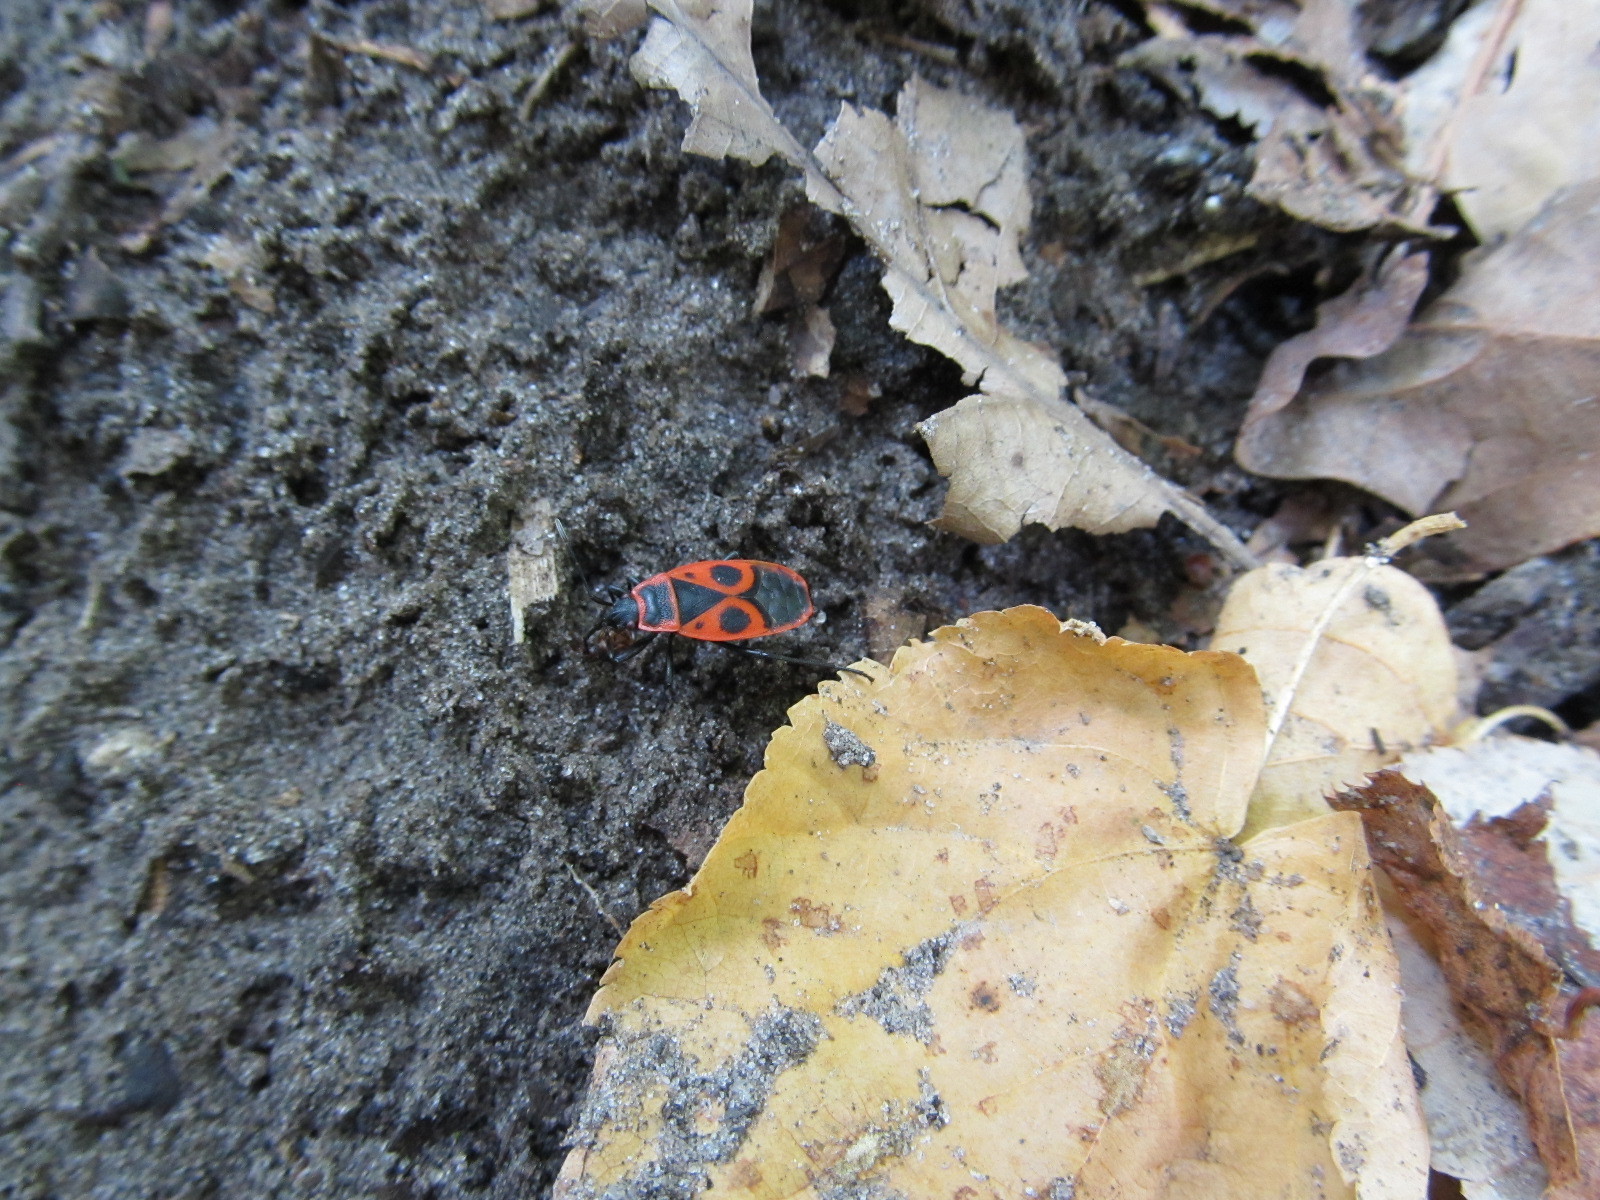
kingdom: Animalia
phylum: Arthropoda
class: Insecta
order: Hemiptera
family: Pyrrhocoridae
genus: Pyrrhocoris
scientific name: Pyrrhocoris apterus
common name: Firebug
